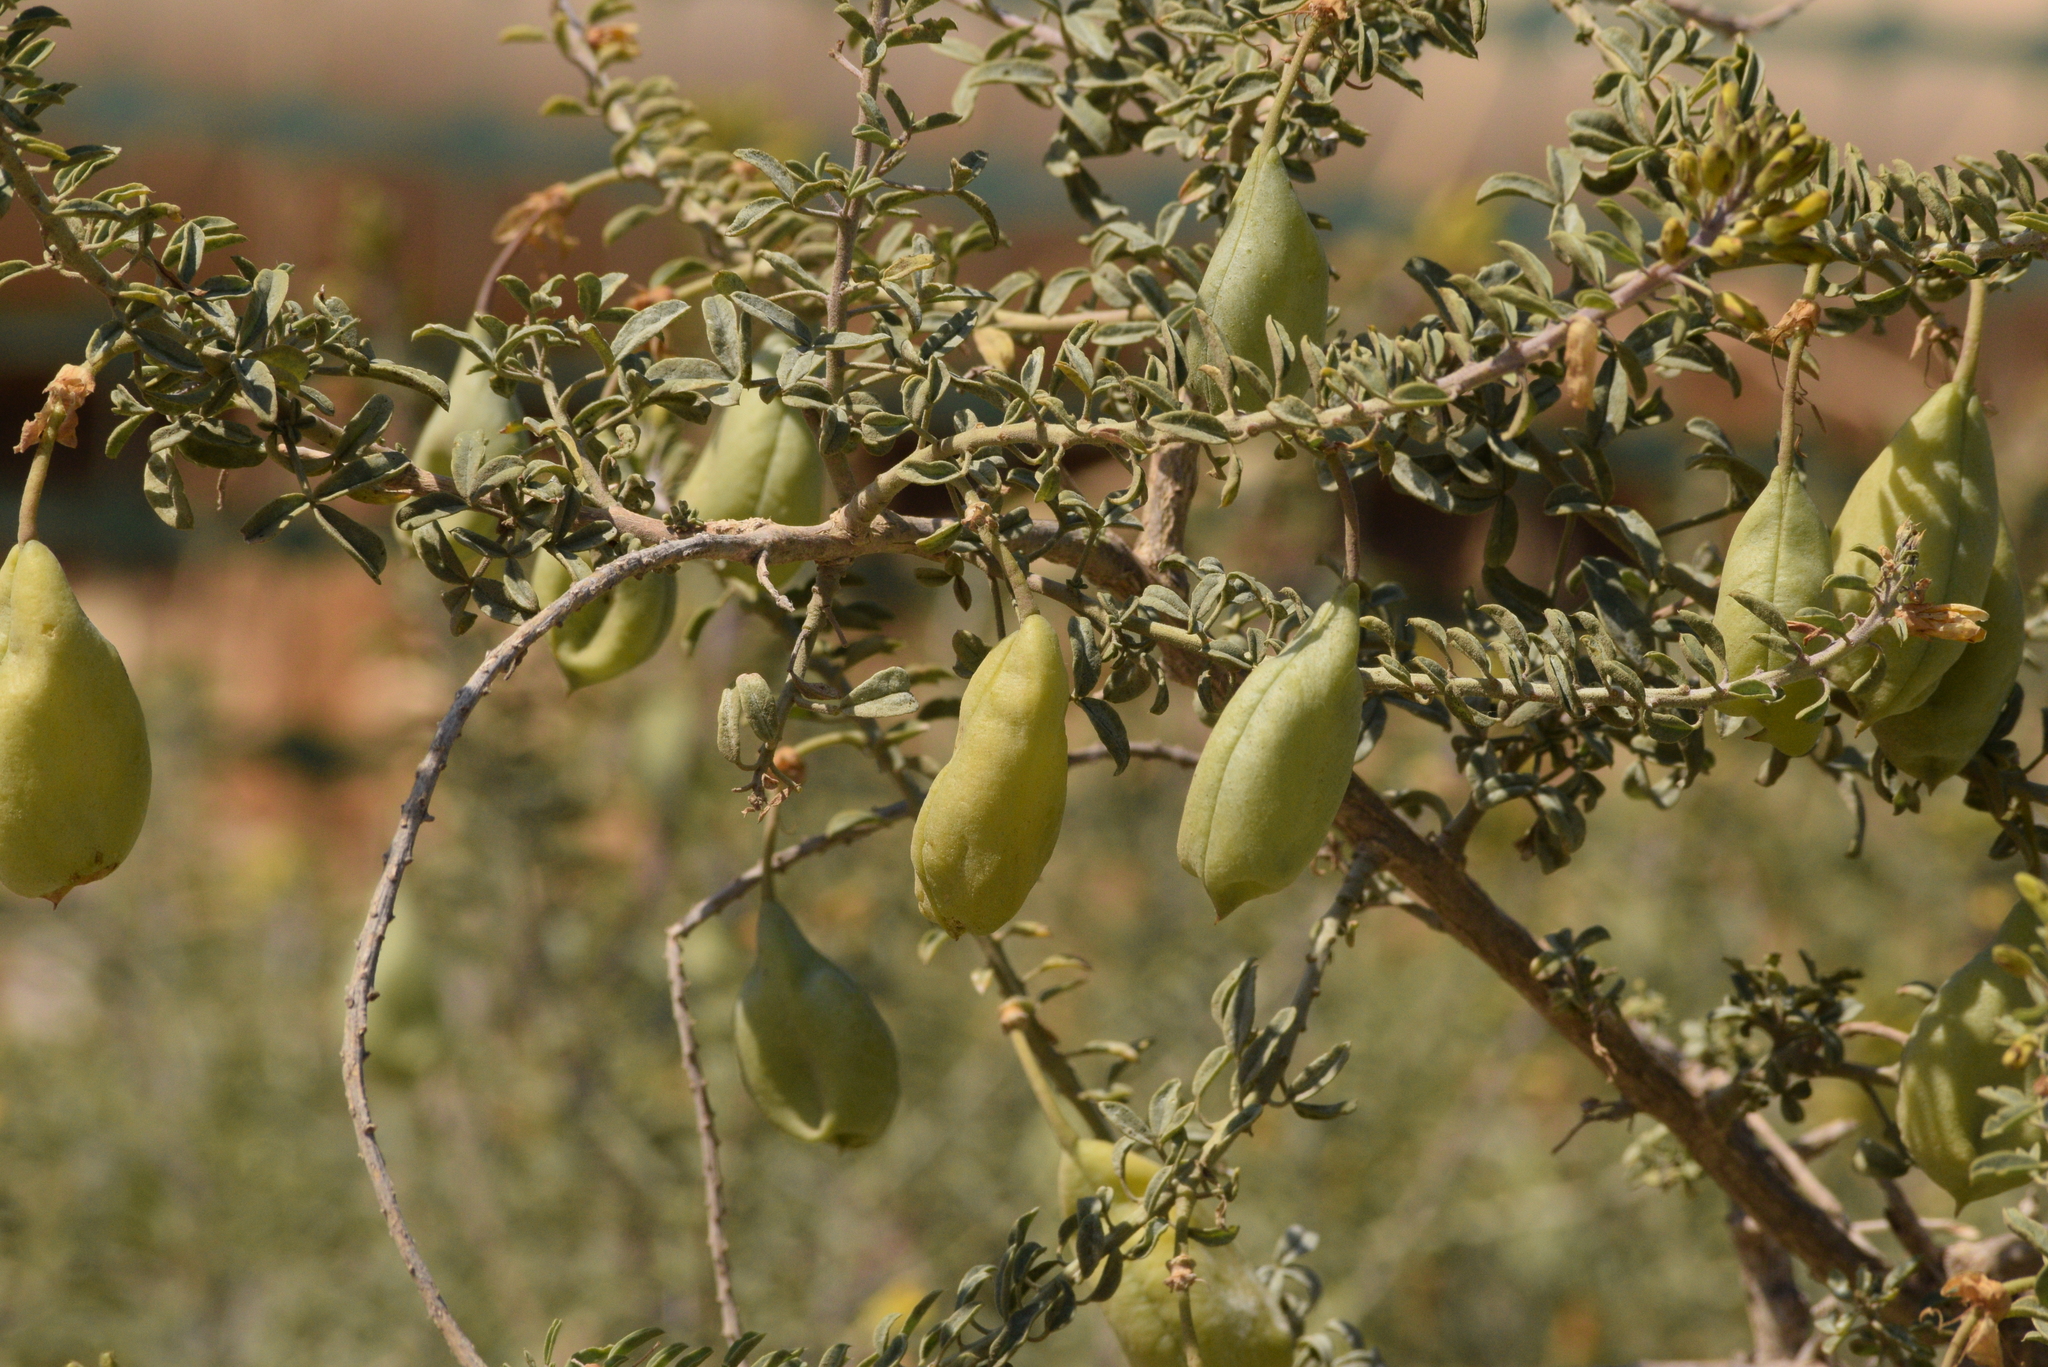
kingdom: Plantae
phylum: Tracheophyta
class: Magnoliopsida
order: Brassicales
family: Cleomaceae
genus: Cleomella
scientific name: Cleomella arborea
